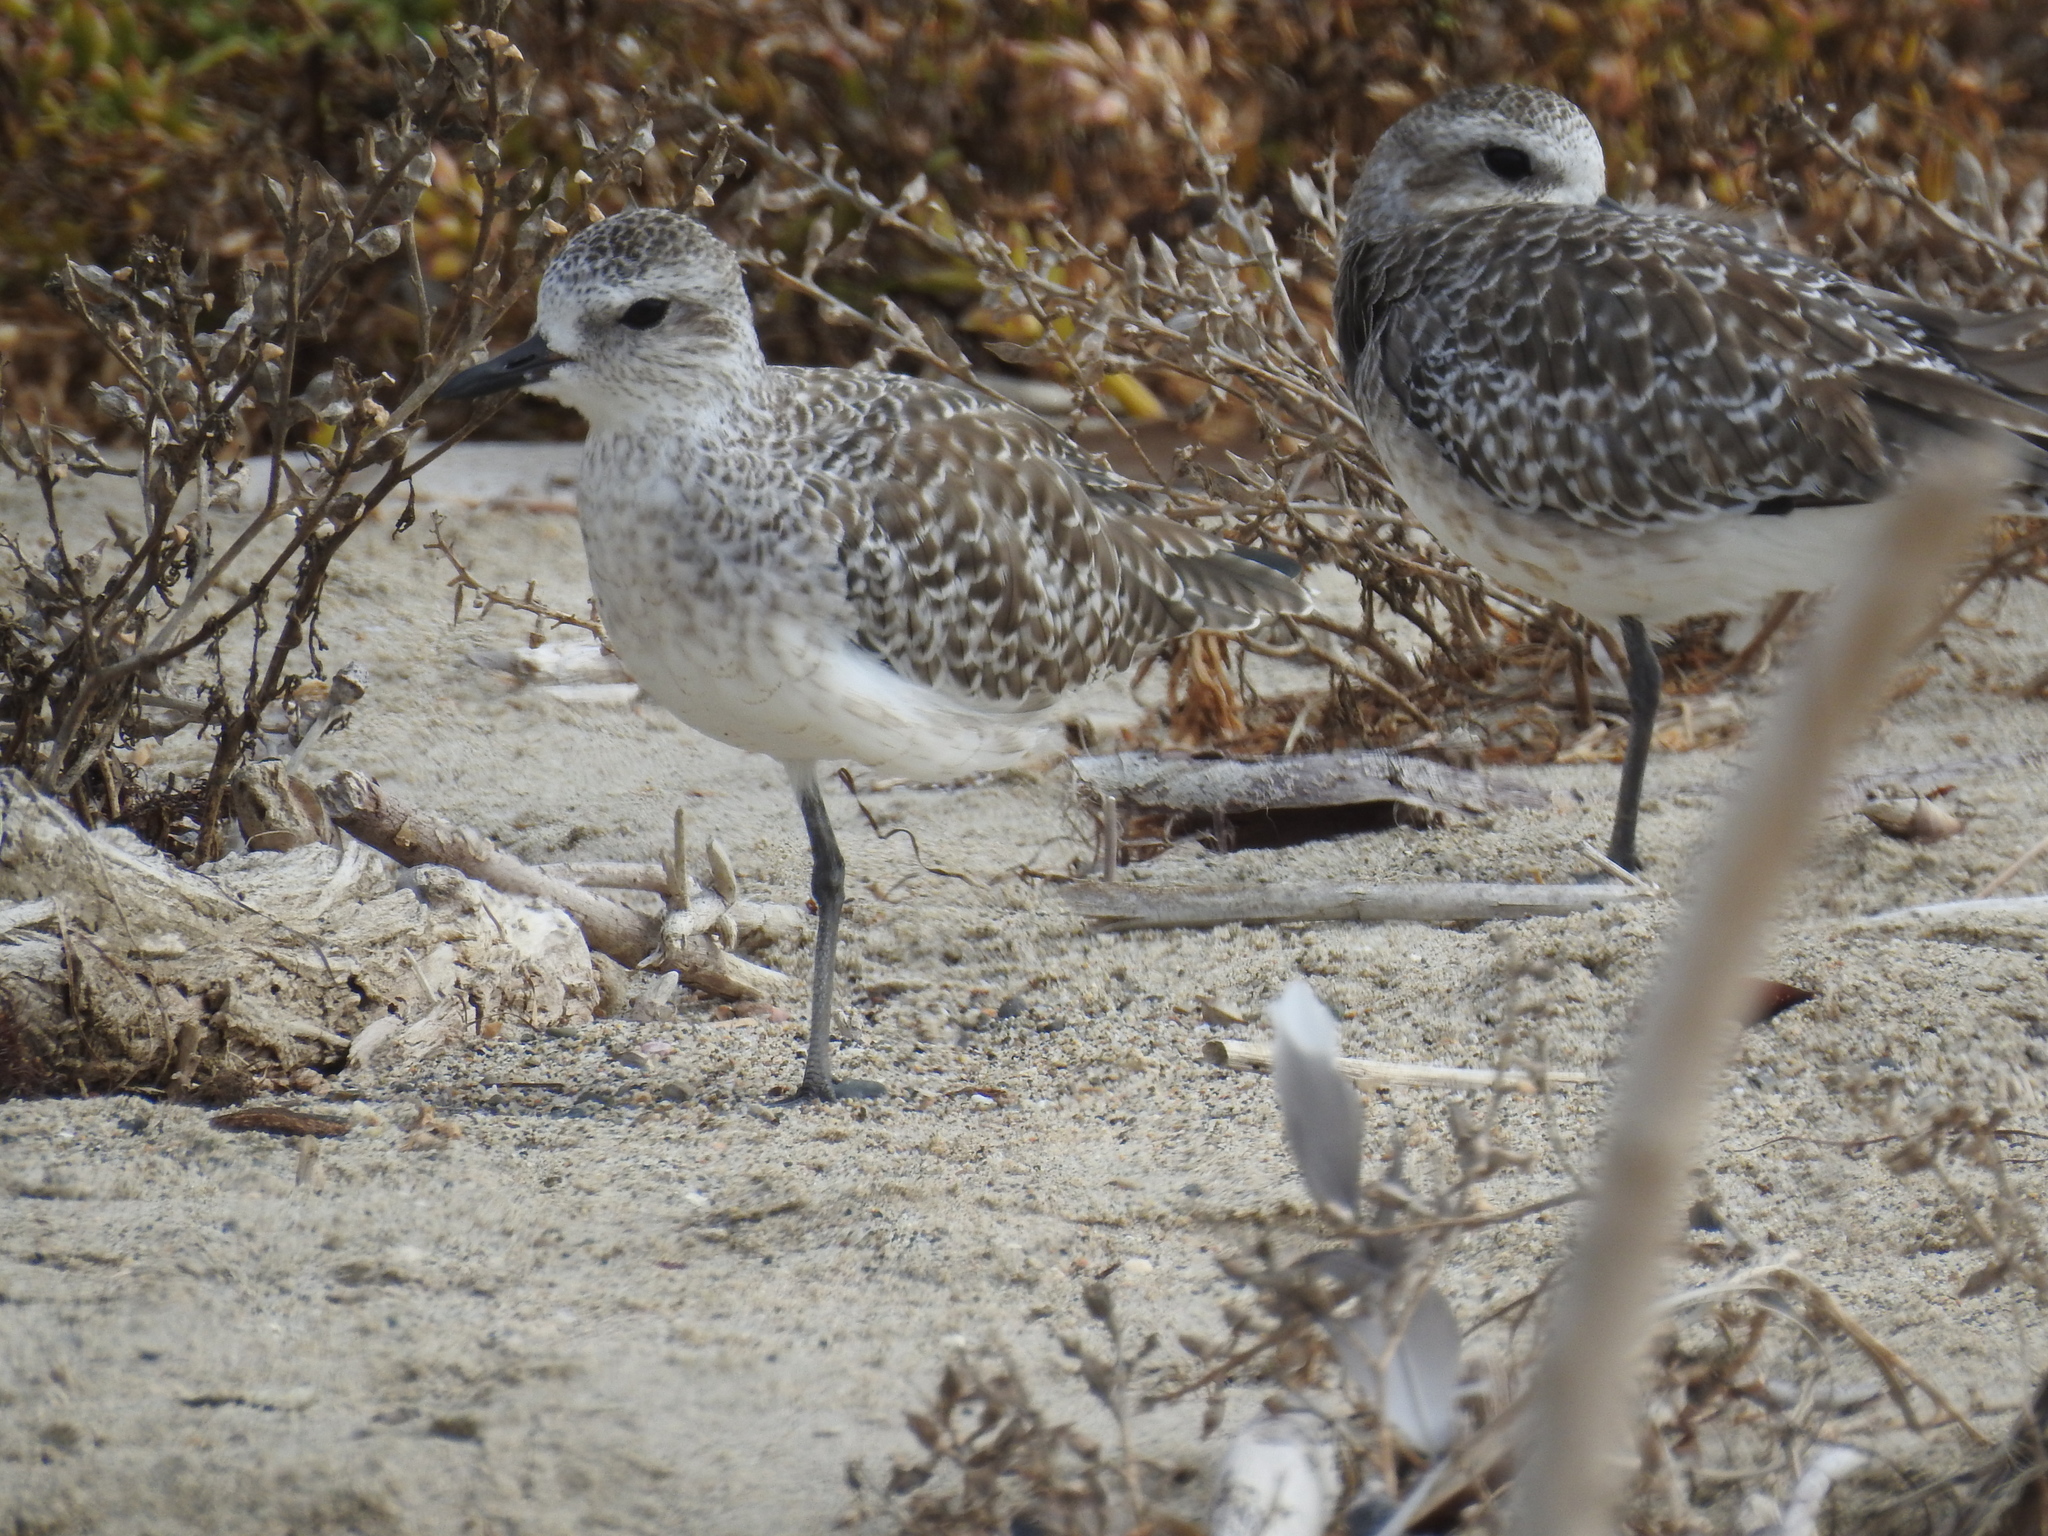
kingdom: Animalia
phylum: Chordata
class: Aves
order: Charadriiformes
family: Charadriidae
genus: Pluvialis
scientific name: Pluvialis squatarola
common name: Grey plover
